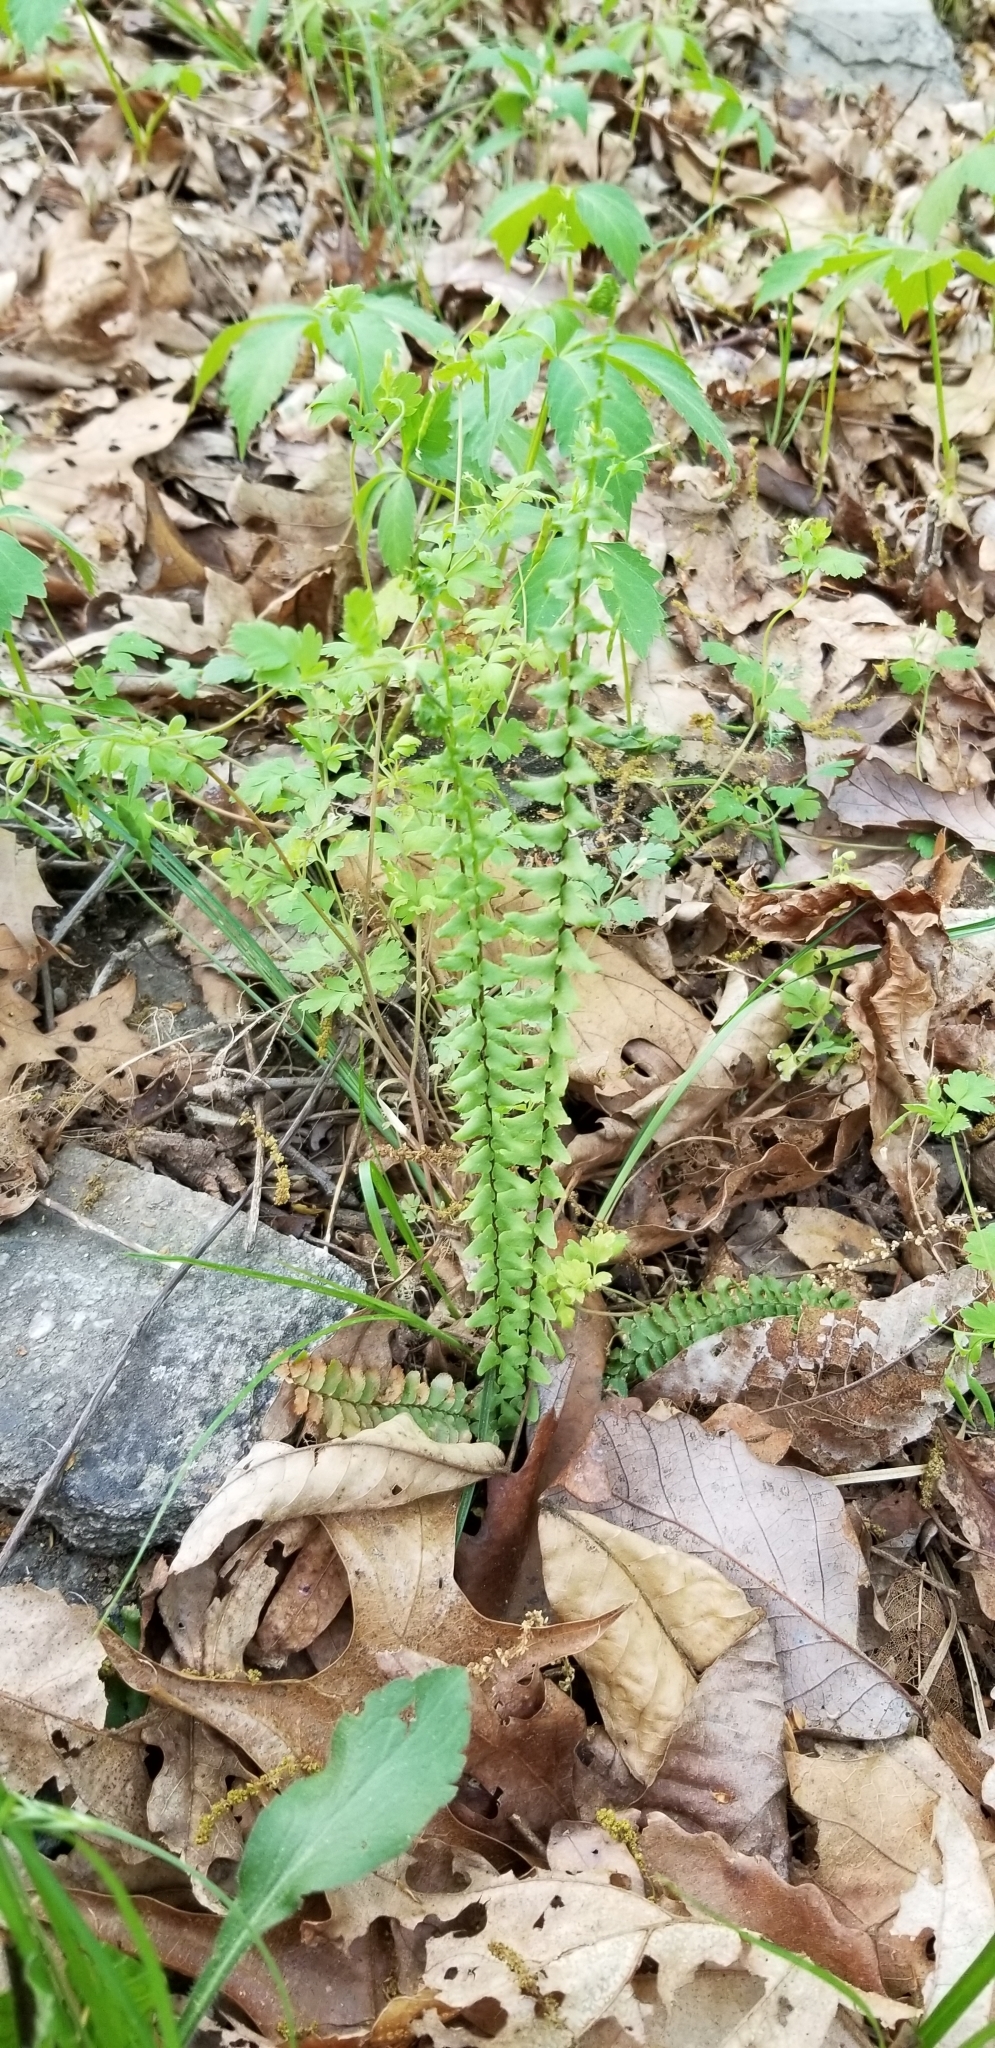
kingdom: Plantae
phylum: Tracheophyta
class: Polypodiopsida
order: Polypodiales
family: Aspleniaceae
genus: Asplenium
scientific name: Asplenium platyneuron
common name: Ebony spleenwort
